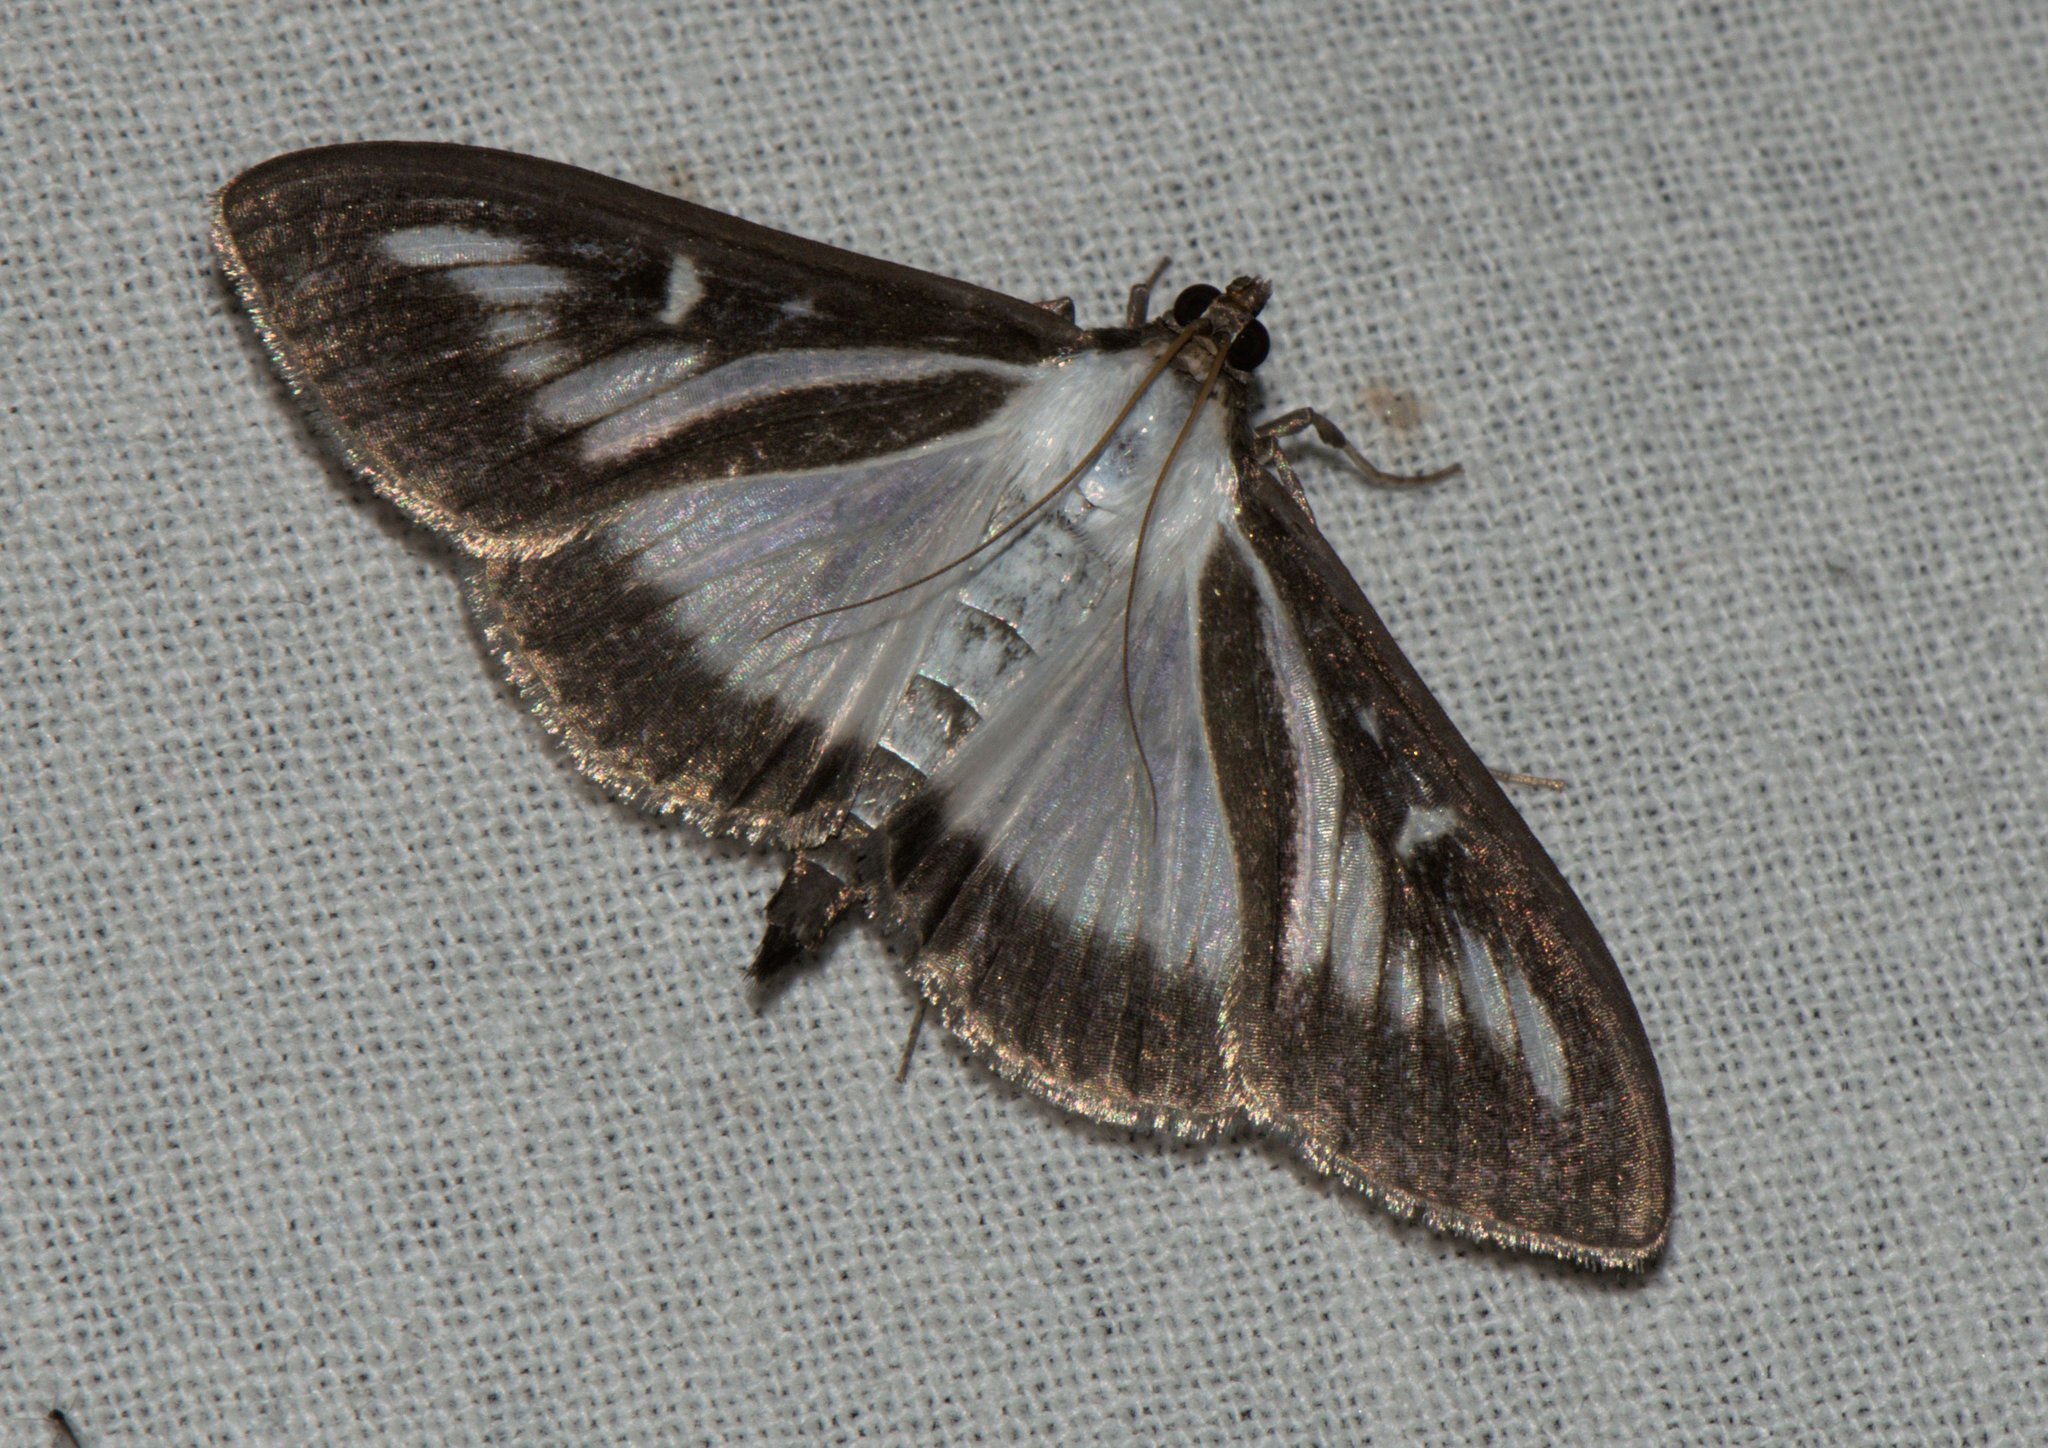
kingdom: Animalia
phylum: Arthropoda
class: Insecta
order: Lepidoptera
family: Crambidae
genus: Cydalima
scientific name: Cydalima perspectalis
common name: Box tree moth
